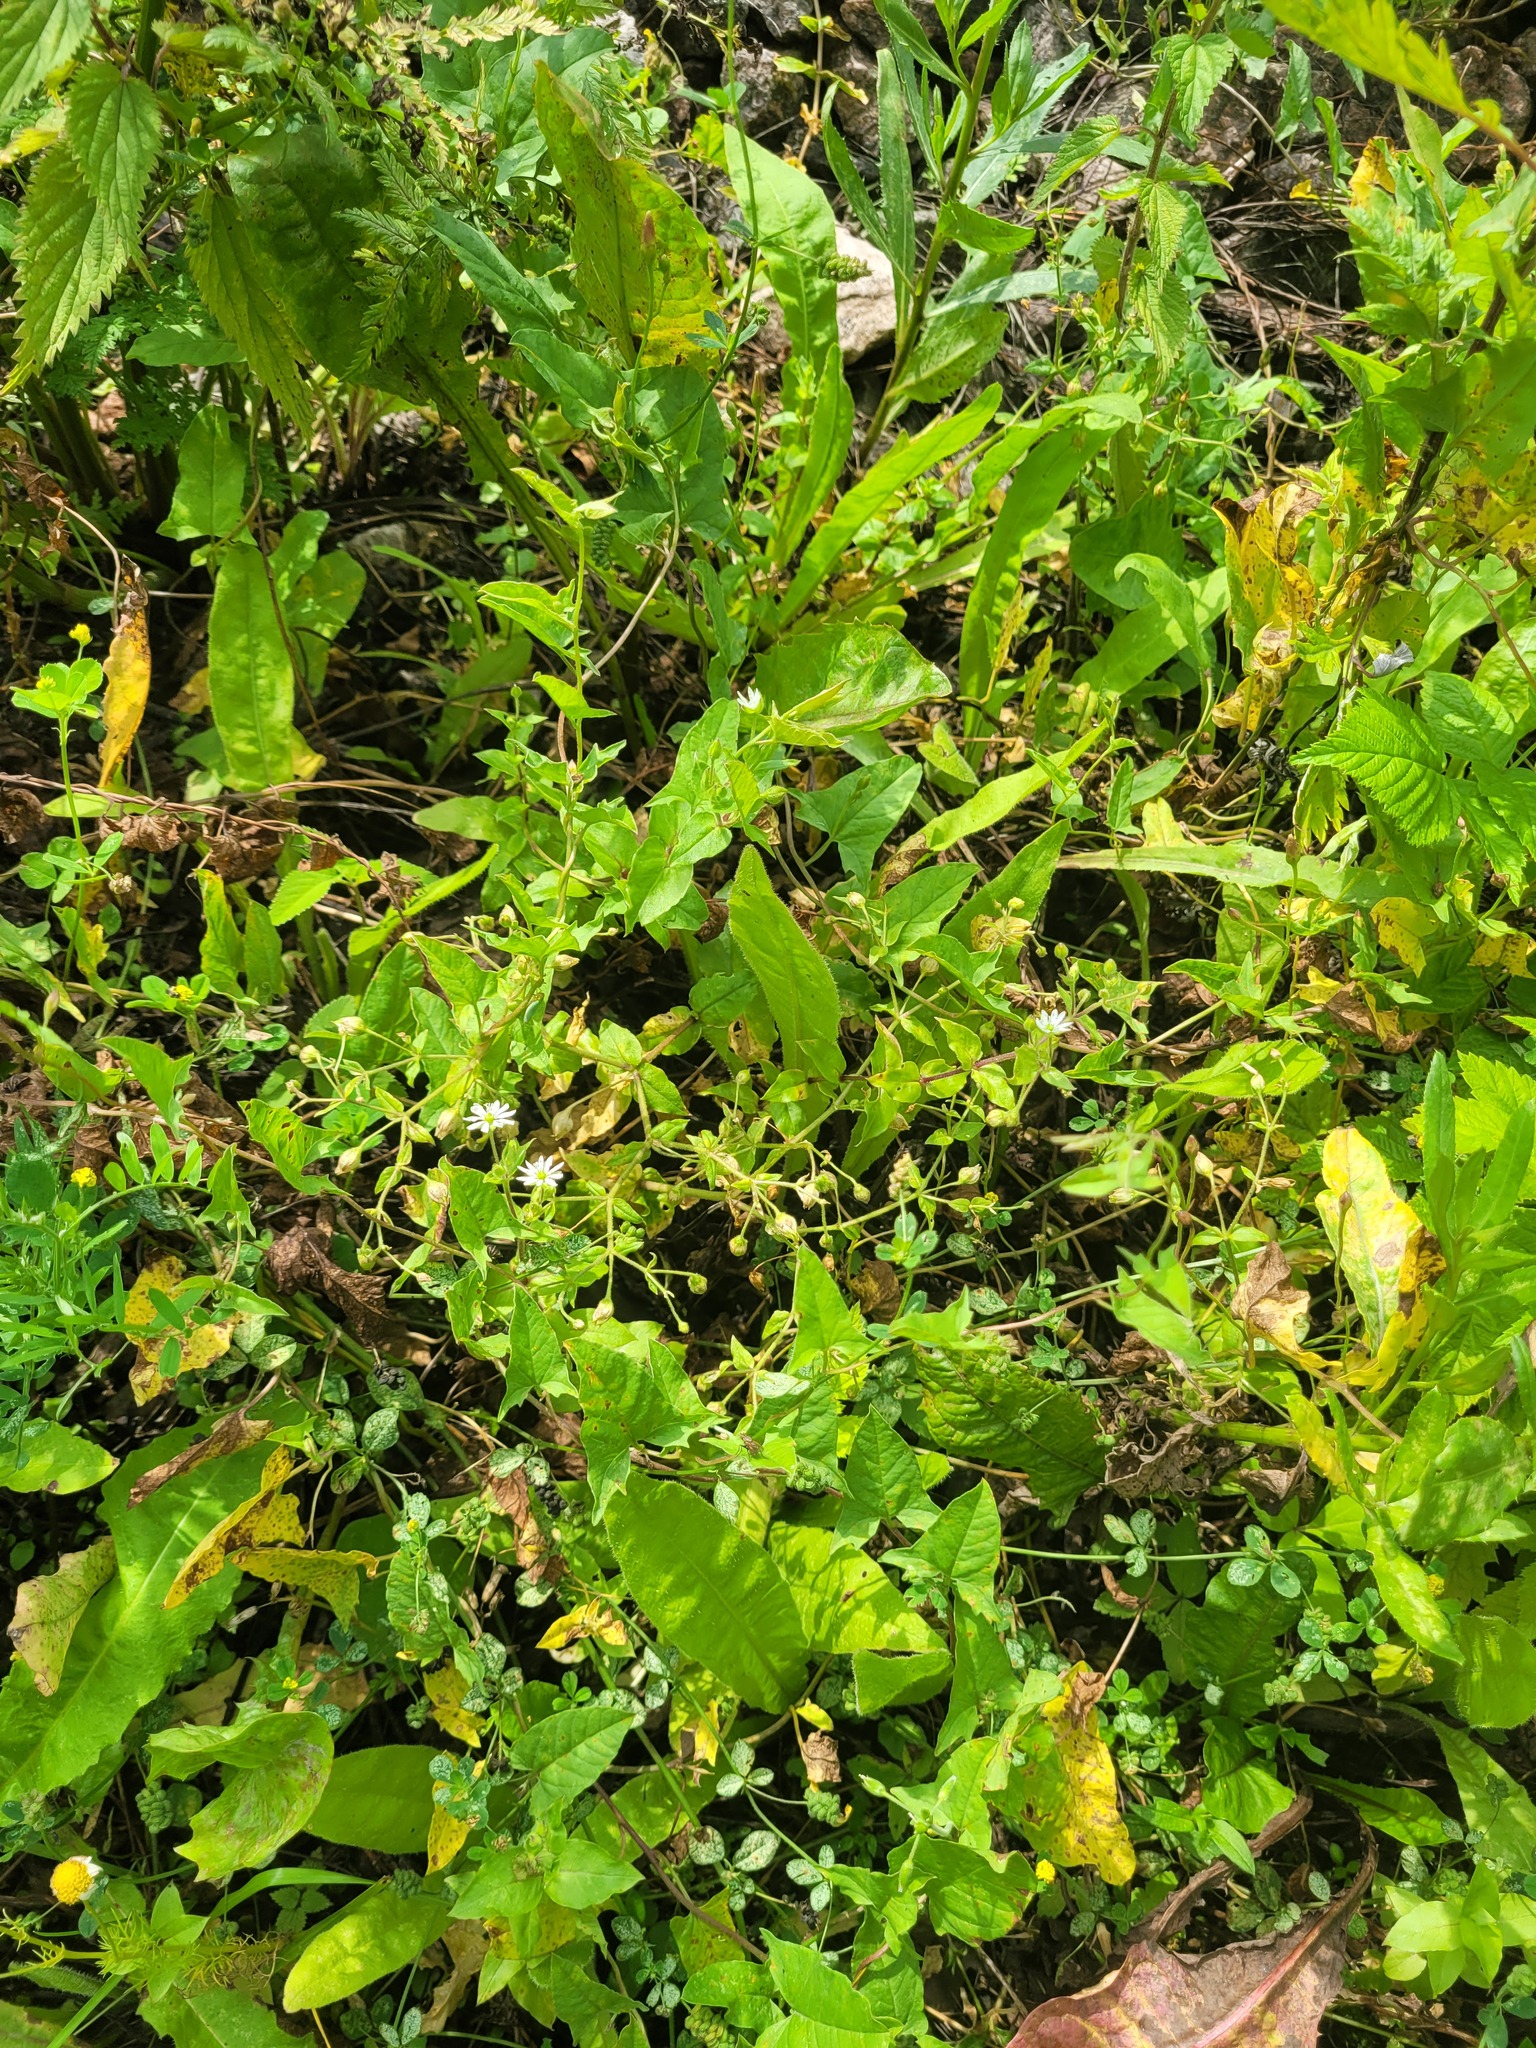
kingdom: Plantae
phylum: Tracheophyta
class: Magnoliopsida
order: Caryophyllales
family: Caryophyllaceae
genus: Stellaria
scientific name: Stellaria aquatica
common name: Water chickweed
